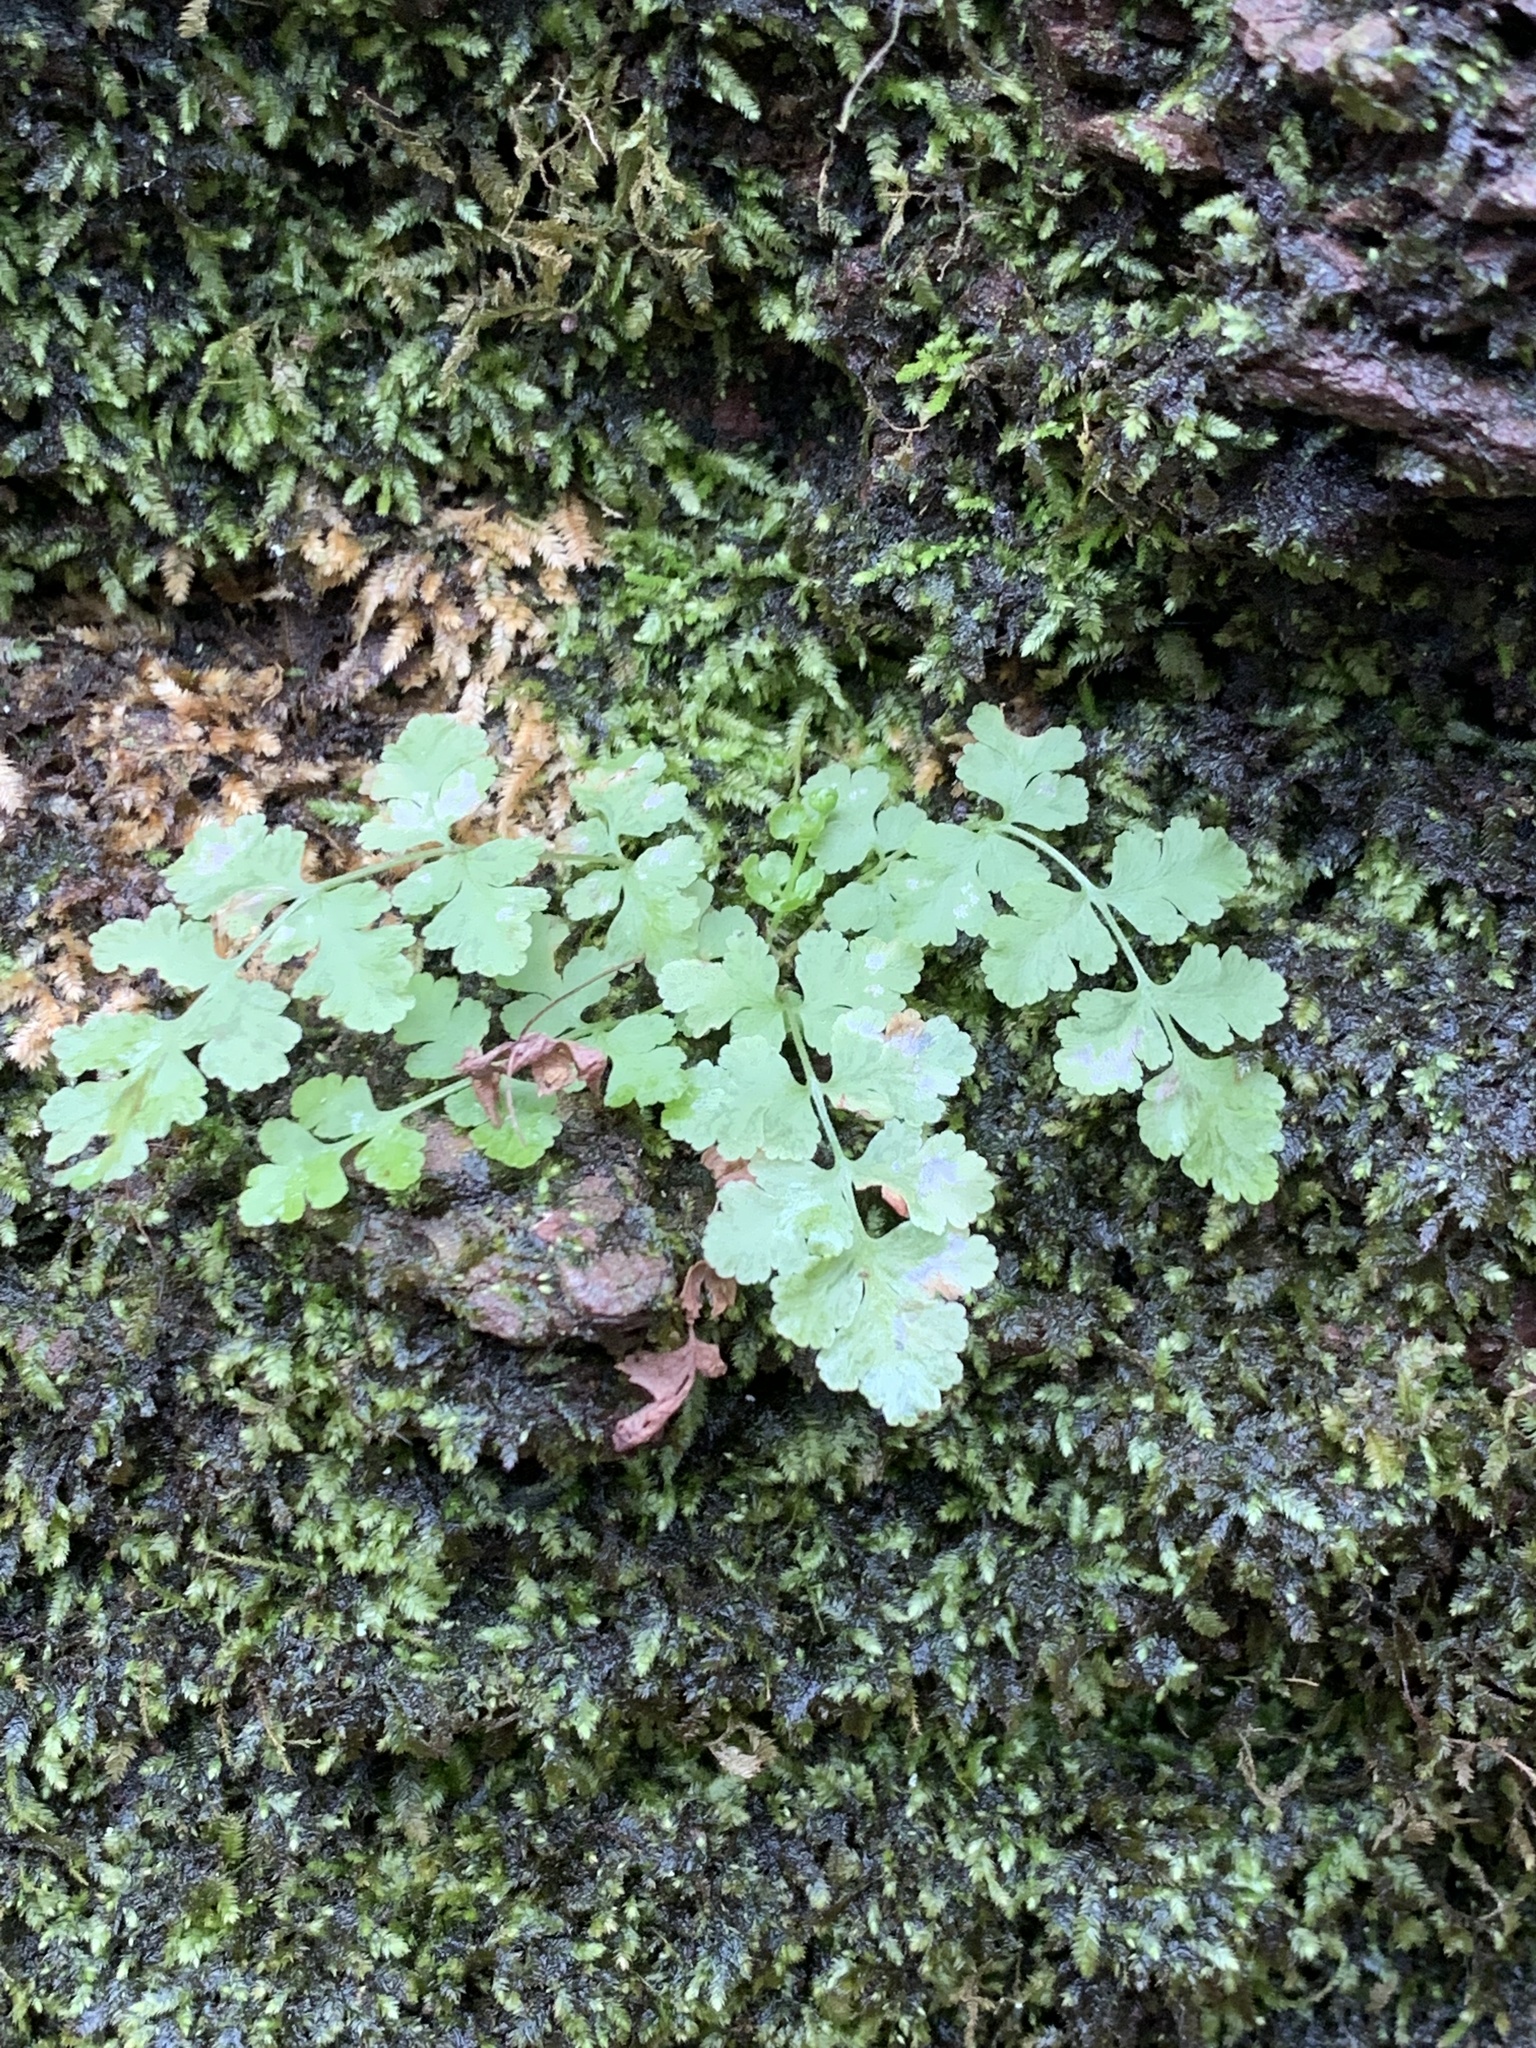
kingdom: Plantae
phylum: Tracheophyta
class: Polypodiopsida
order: Polypodiales
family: Woodsiaceae
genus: Physematium
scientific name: Physematium obtusum
